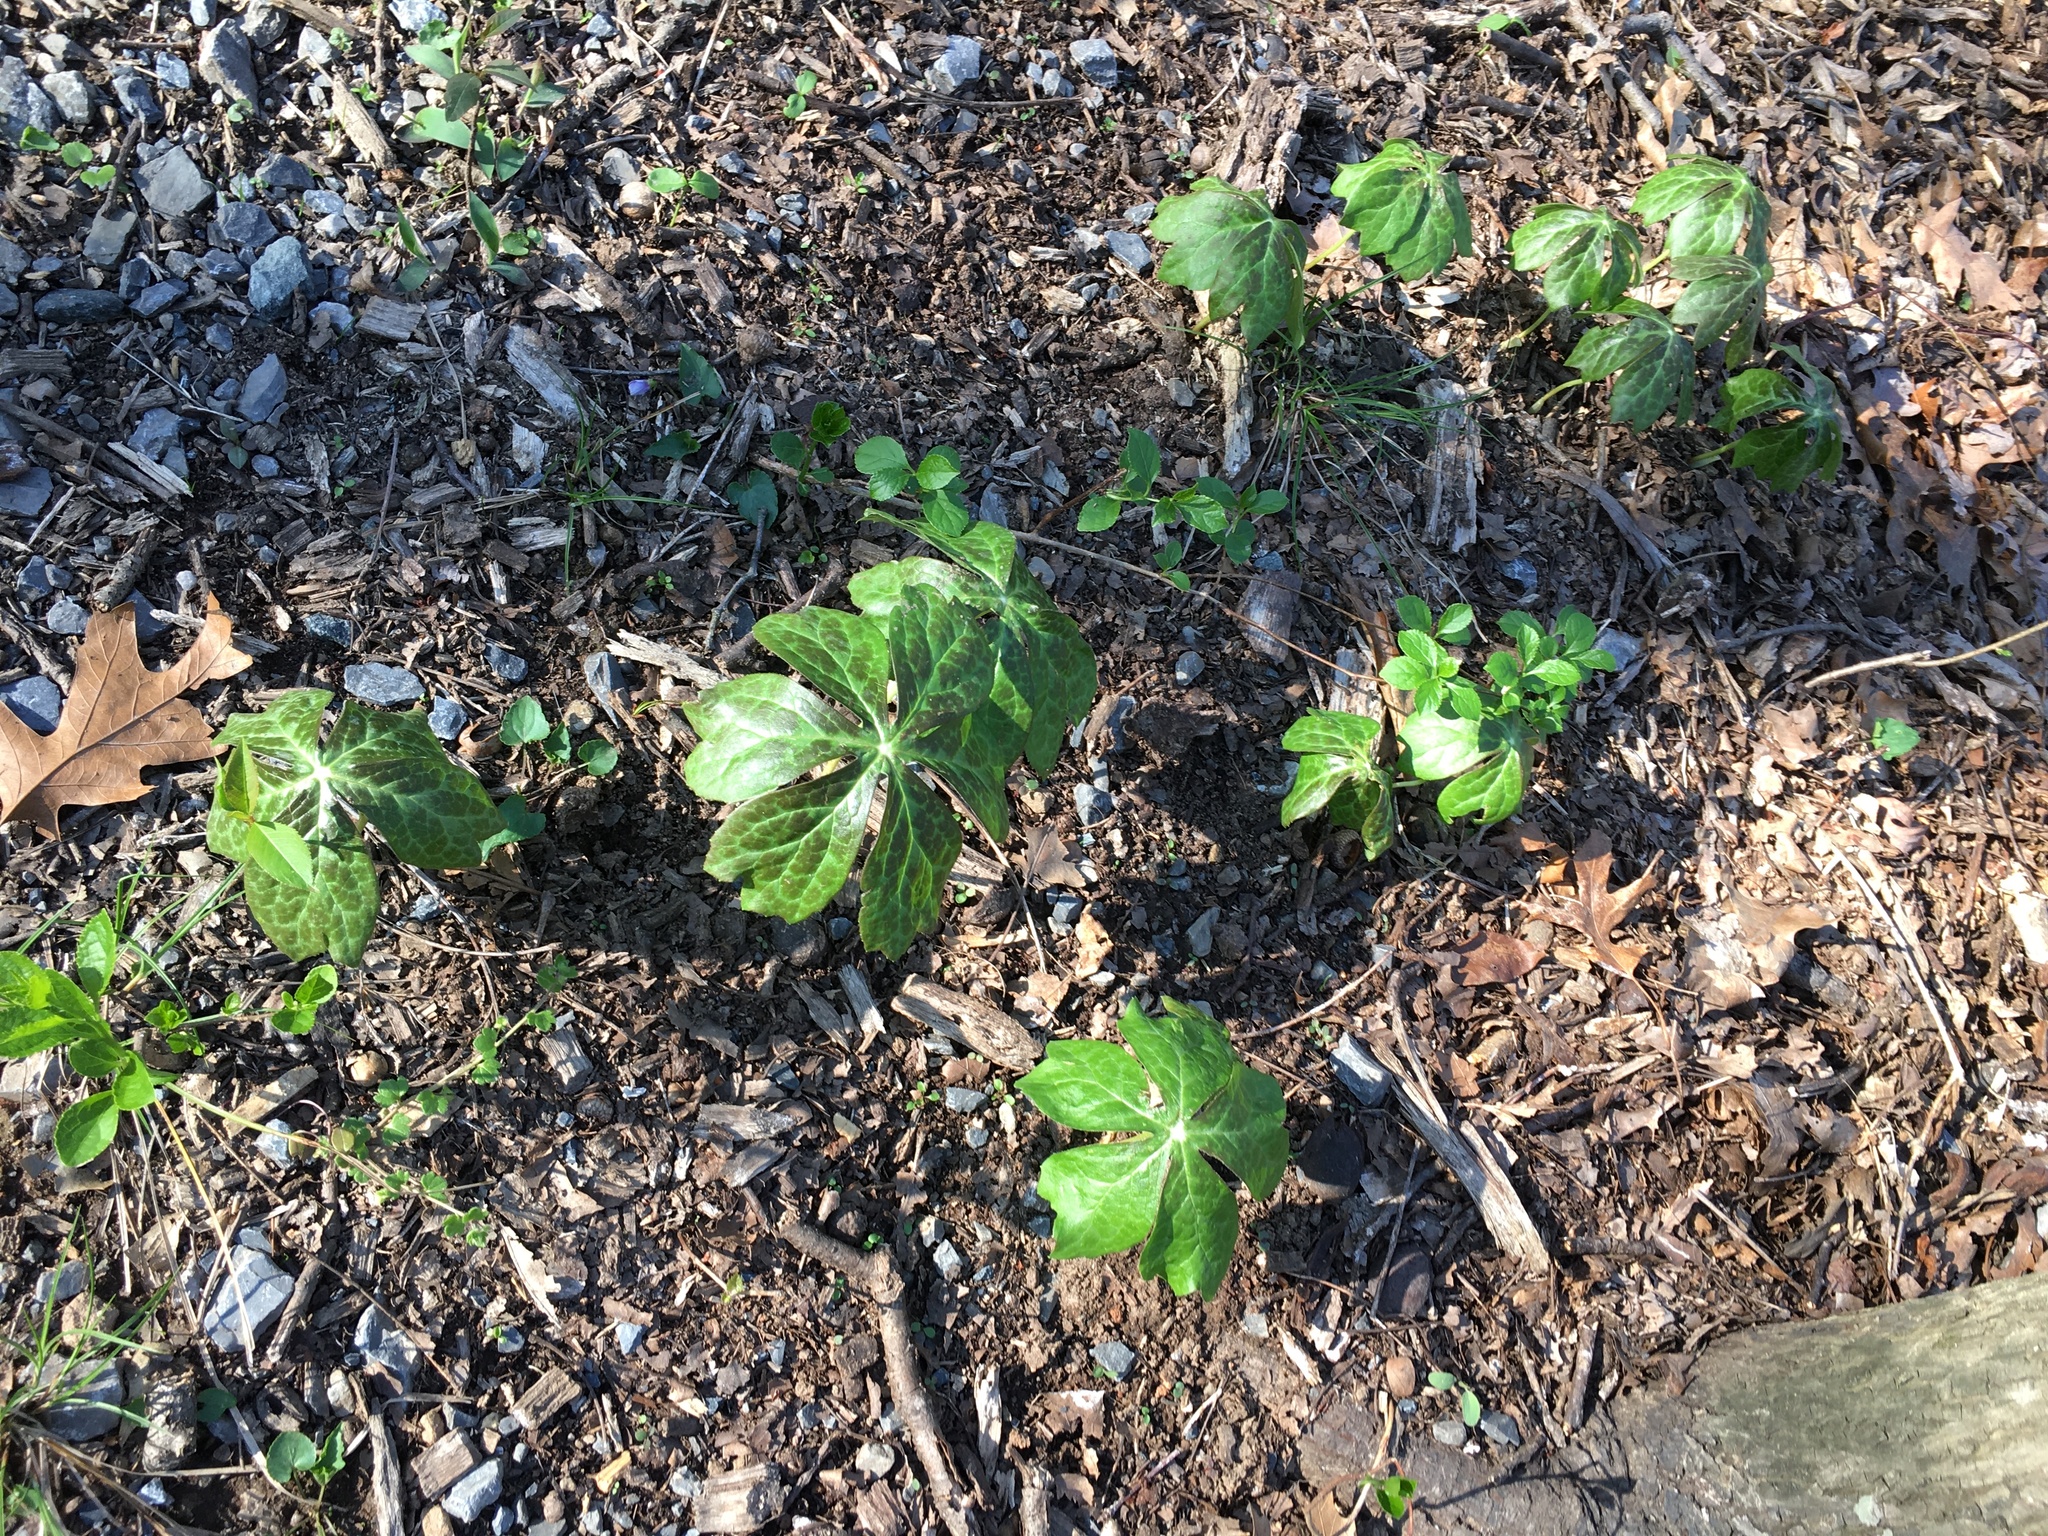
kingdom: Plantae
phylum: Tracheophyta
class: Magnoliopsida
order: Ranunculales
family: Berberidaceae
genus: Podophyllum
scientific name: Podophyllum peltatum
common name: Wild mandrake
